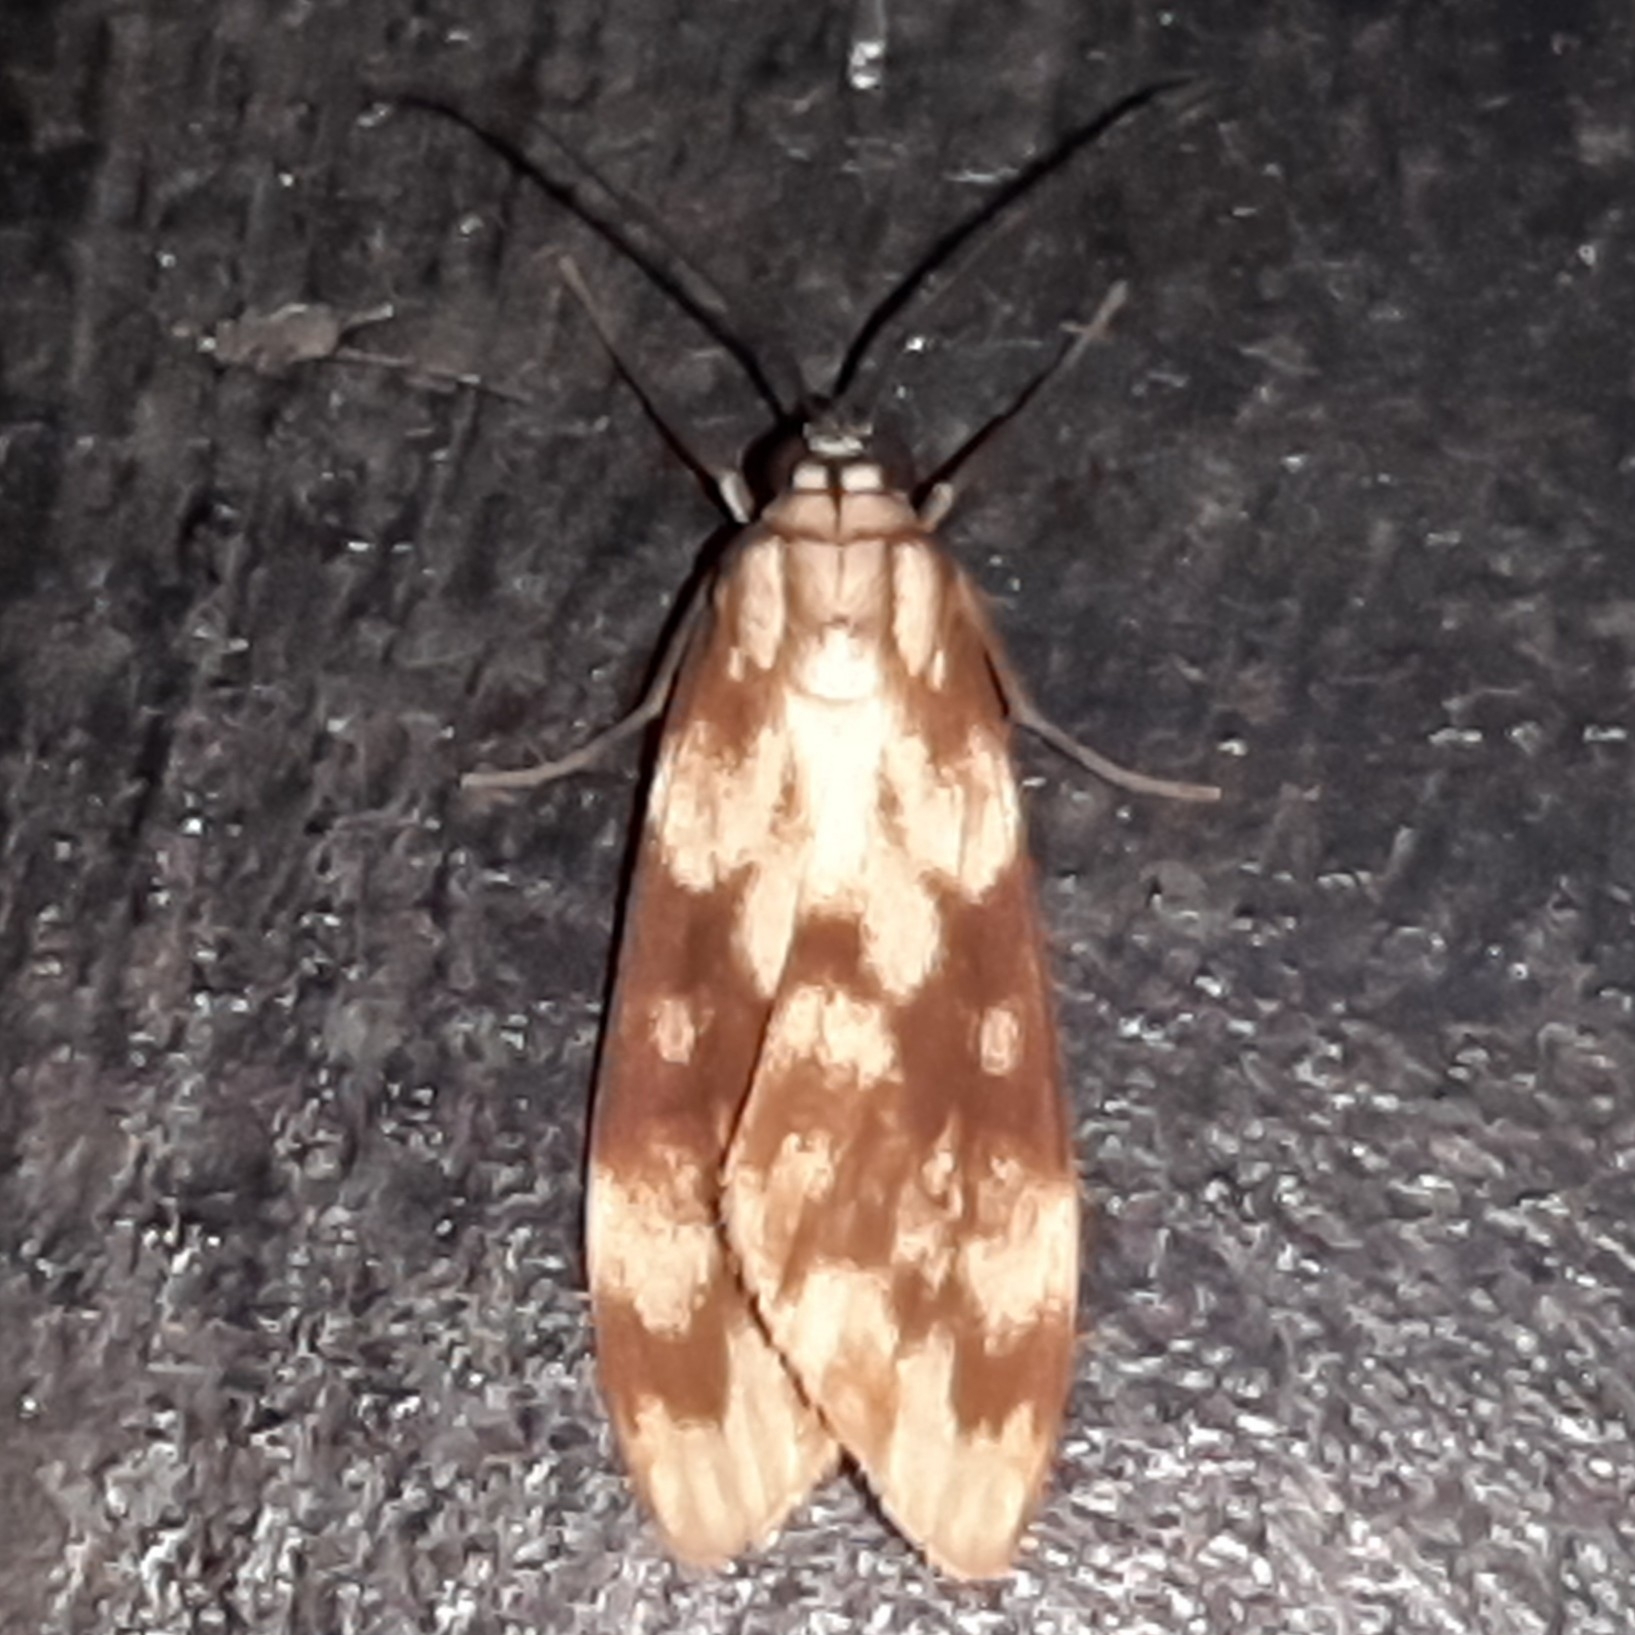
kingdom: Animalia
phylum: Arthropoda
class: Insecta
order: Lepidoptera
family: Erebidae
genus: Eucereon
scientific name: Eucereon discolor
